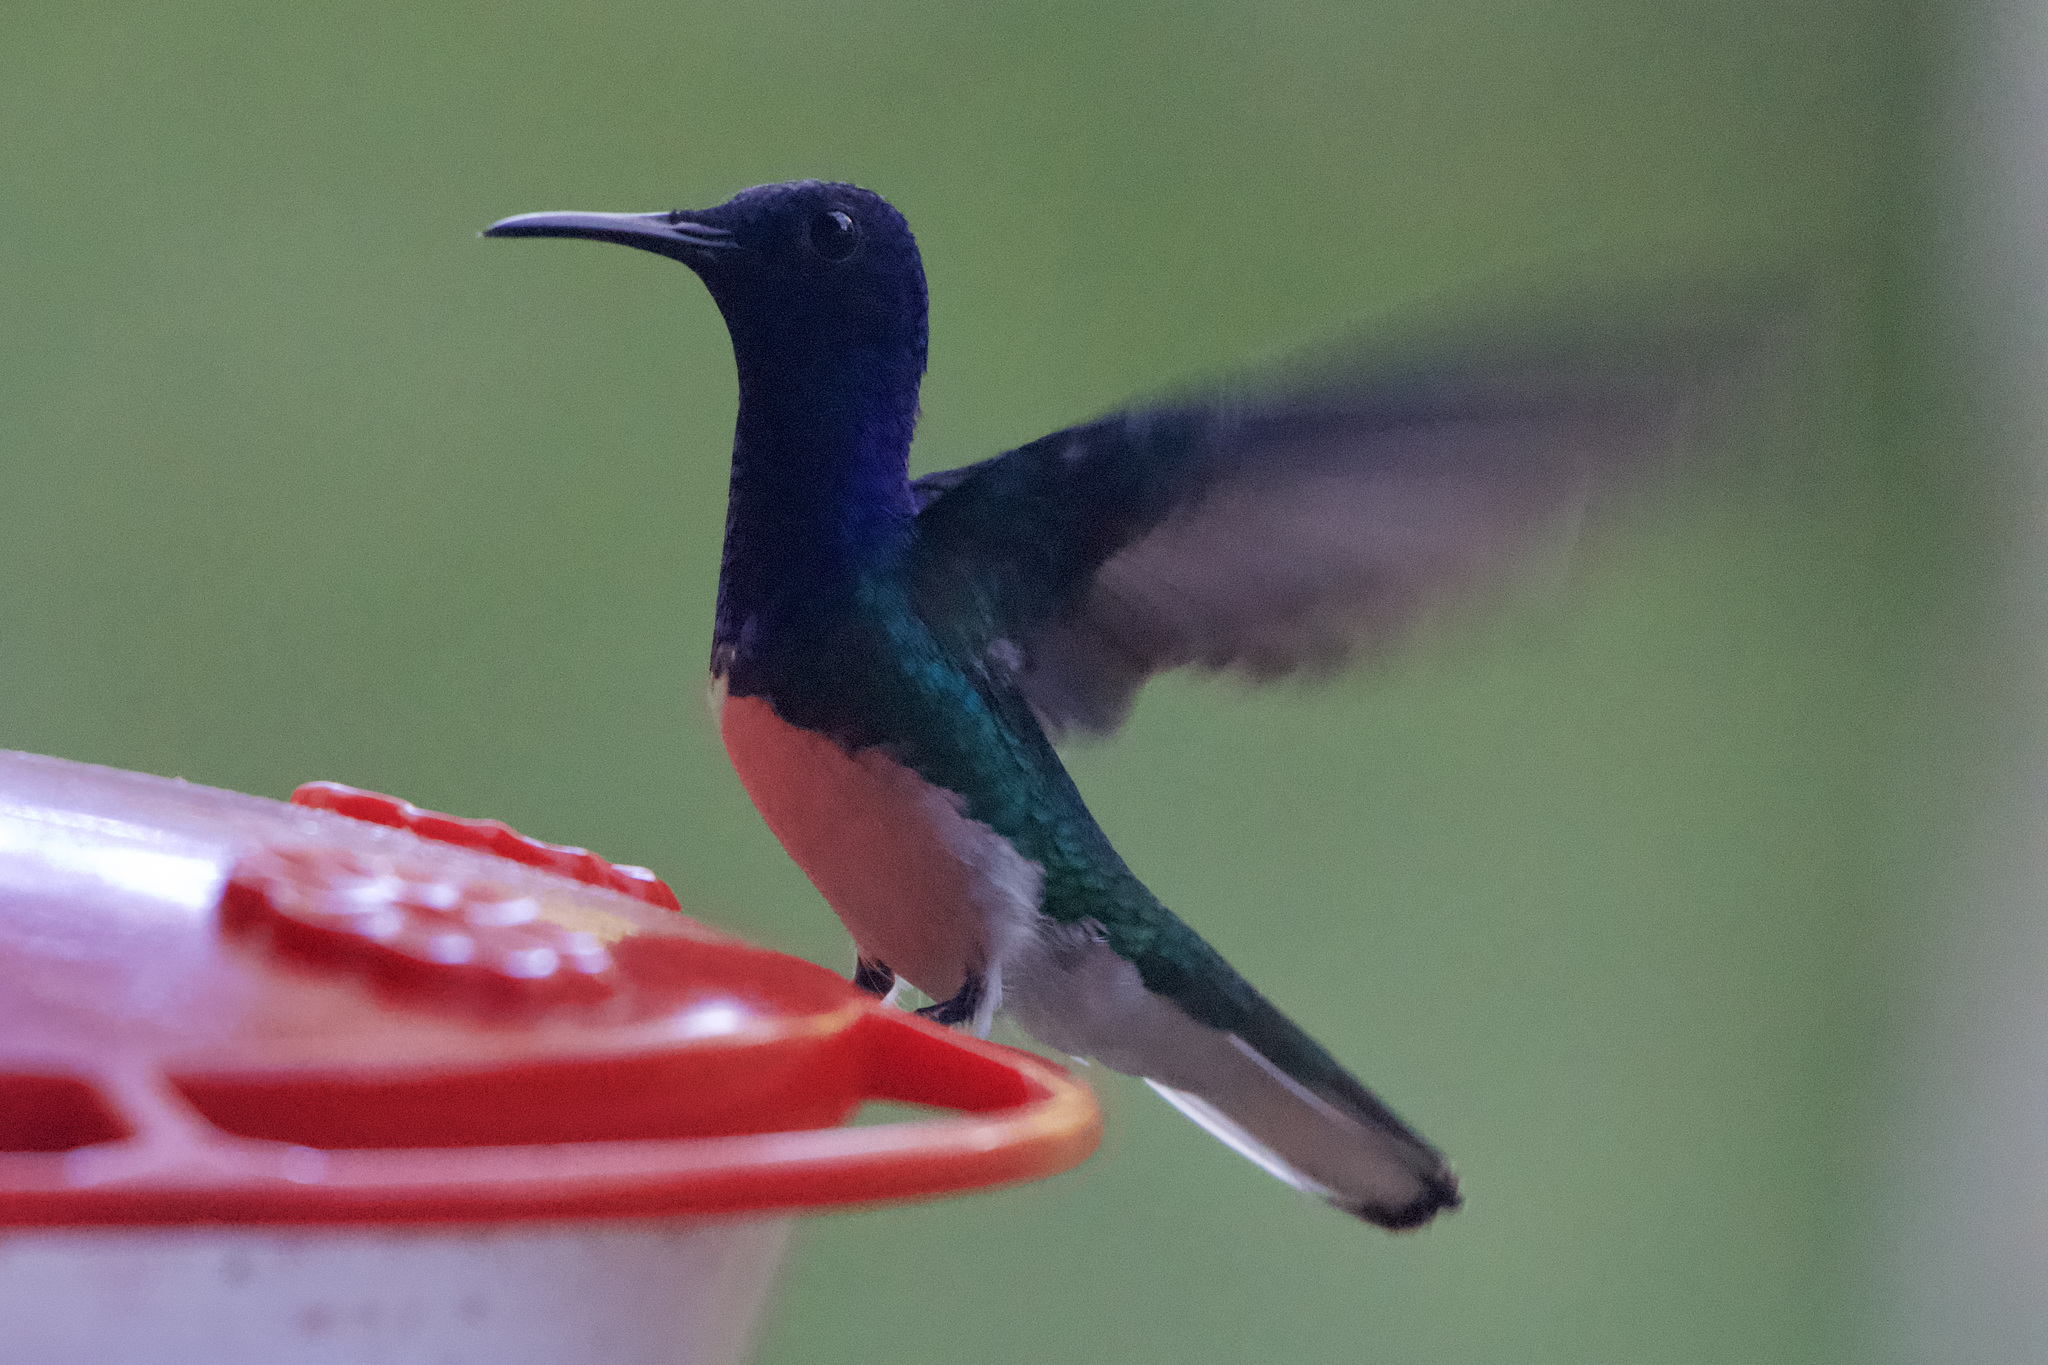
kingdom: Animalia
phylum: Chordata
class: Aves
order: Apodiformes
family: Trochilidae
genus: Florisuga
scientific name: Florisuga mellivora
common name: White-necked jacobin
